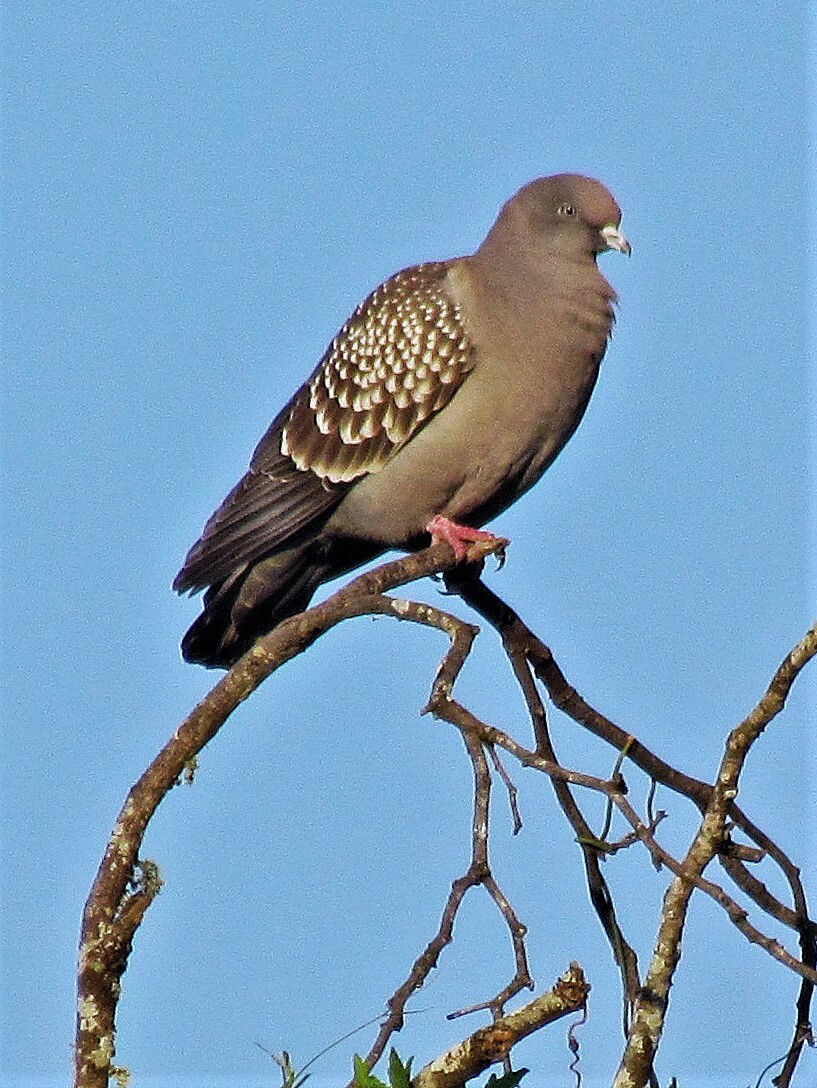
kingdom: Animalia
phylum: Chordata
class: Aves
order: Columbiformes
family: Columbidae
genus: Patagioenas
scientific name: Patagioenas maculosa
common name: Spot-winged pigeon
